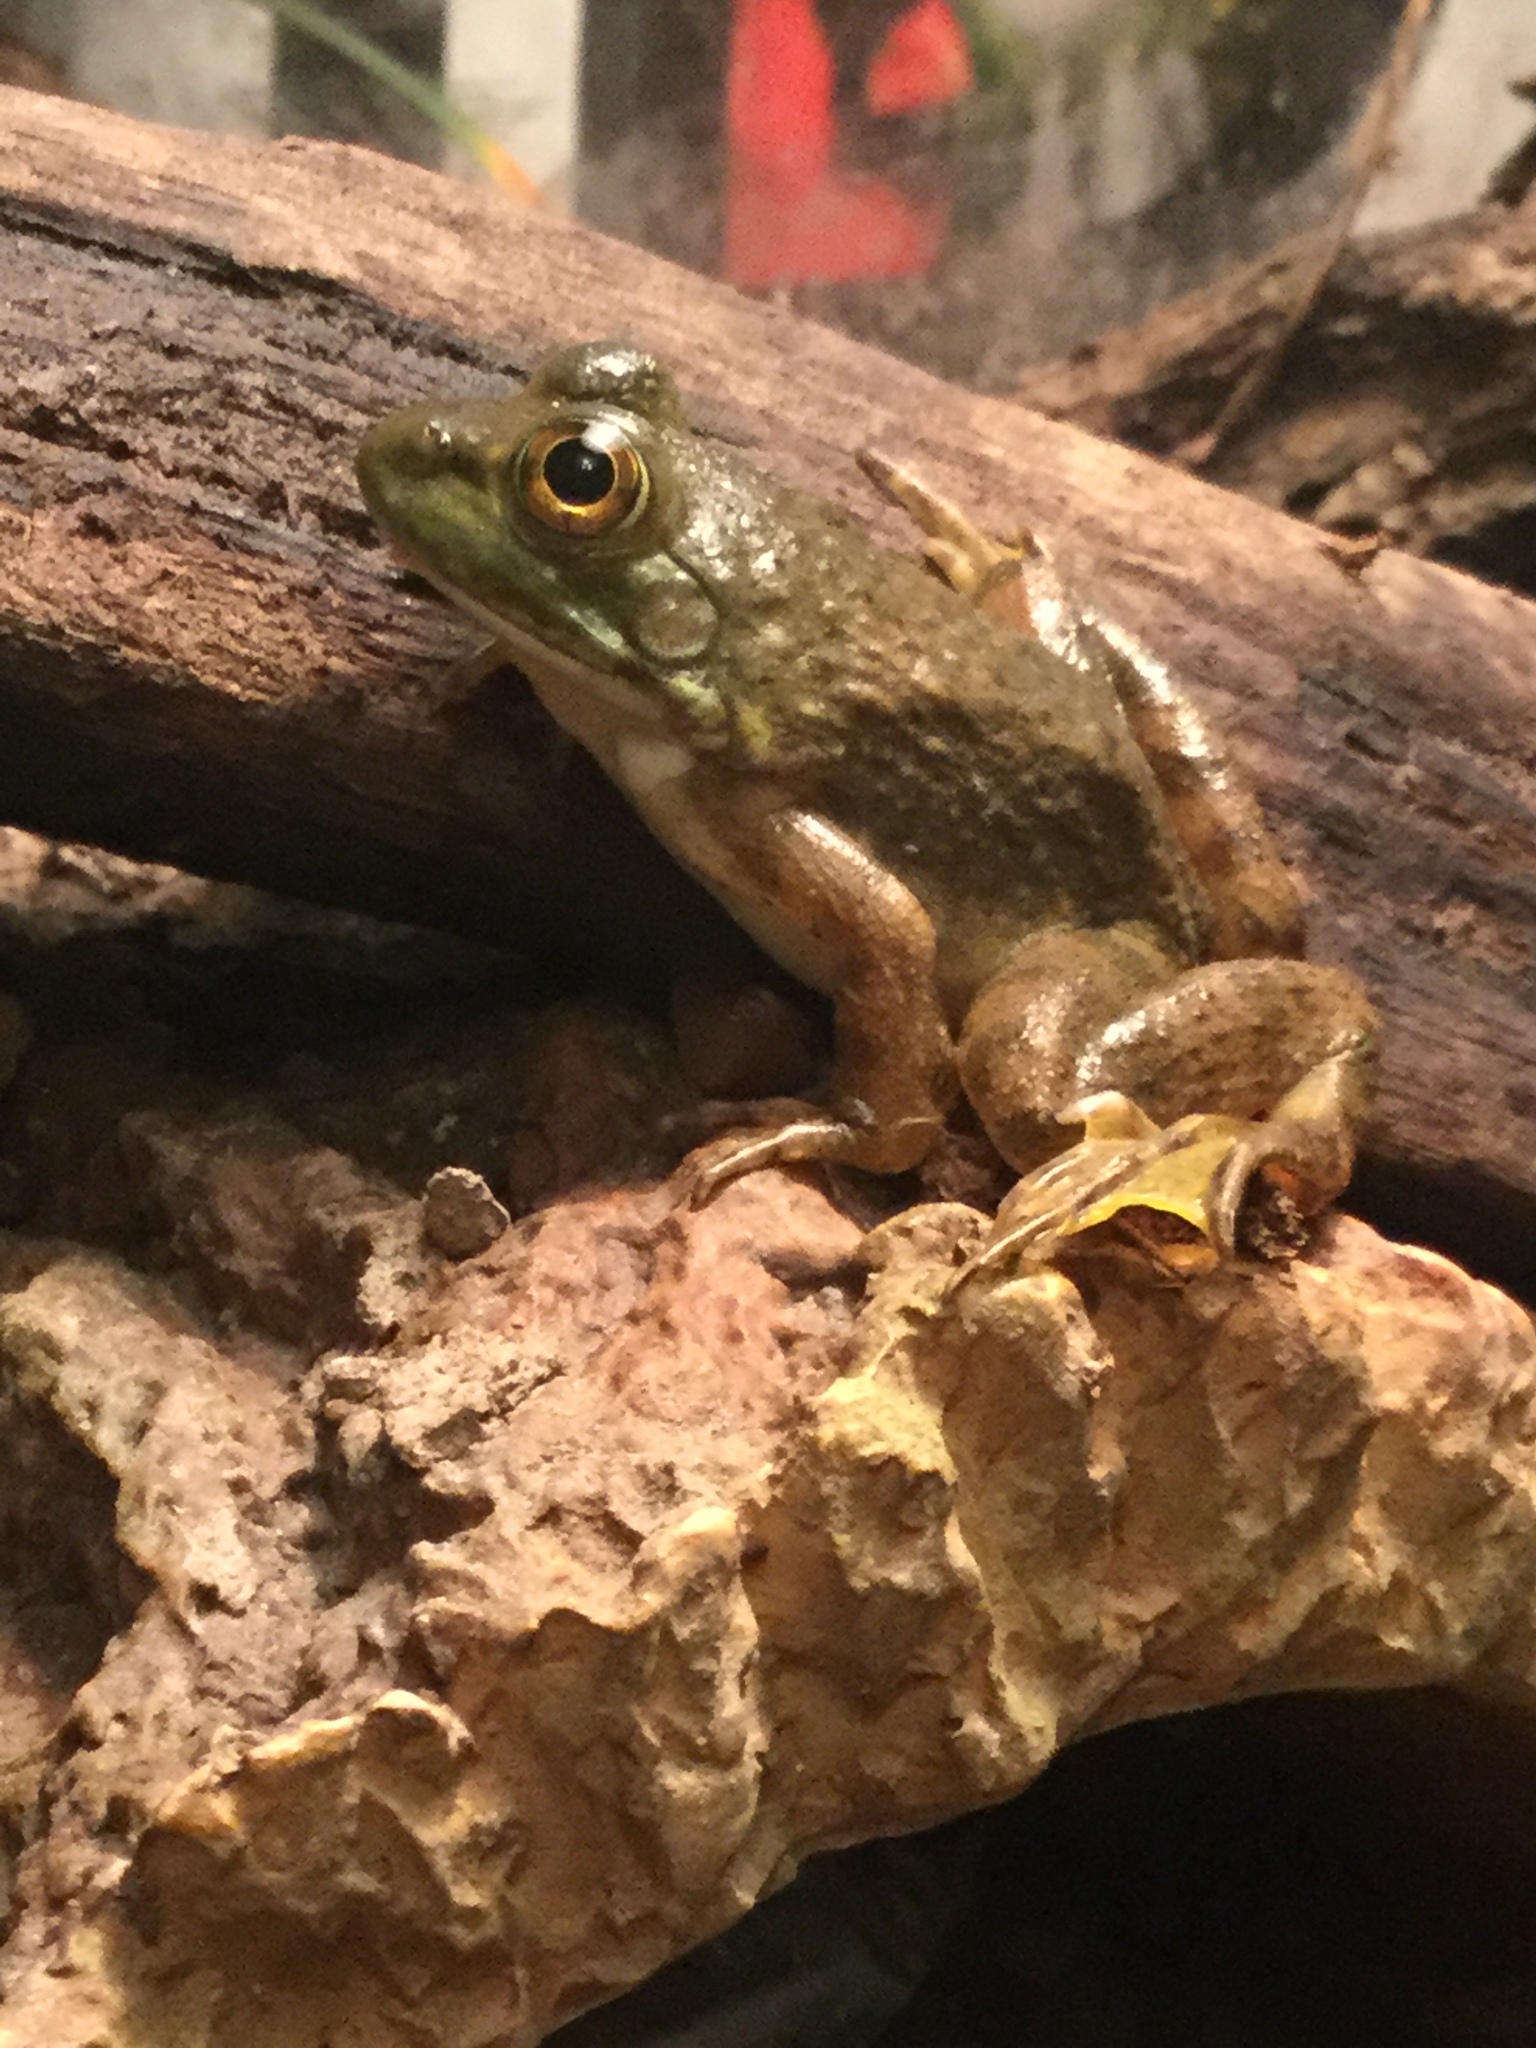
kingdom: Animalia
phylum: Chordata
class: Amphibia
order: Anura
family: Ranidae
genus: Lithobates
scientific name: Lithobates catesbeianus
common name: American bullfrog
